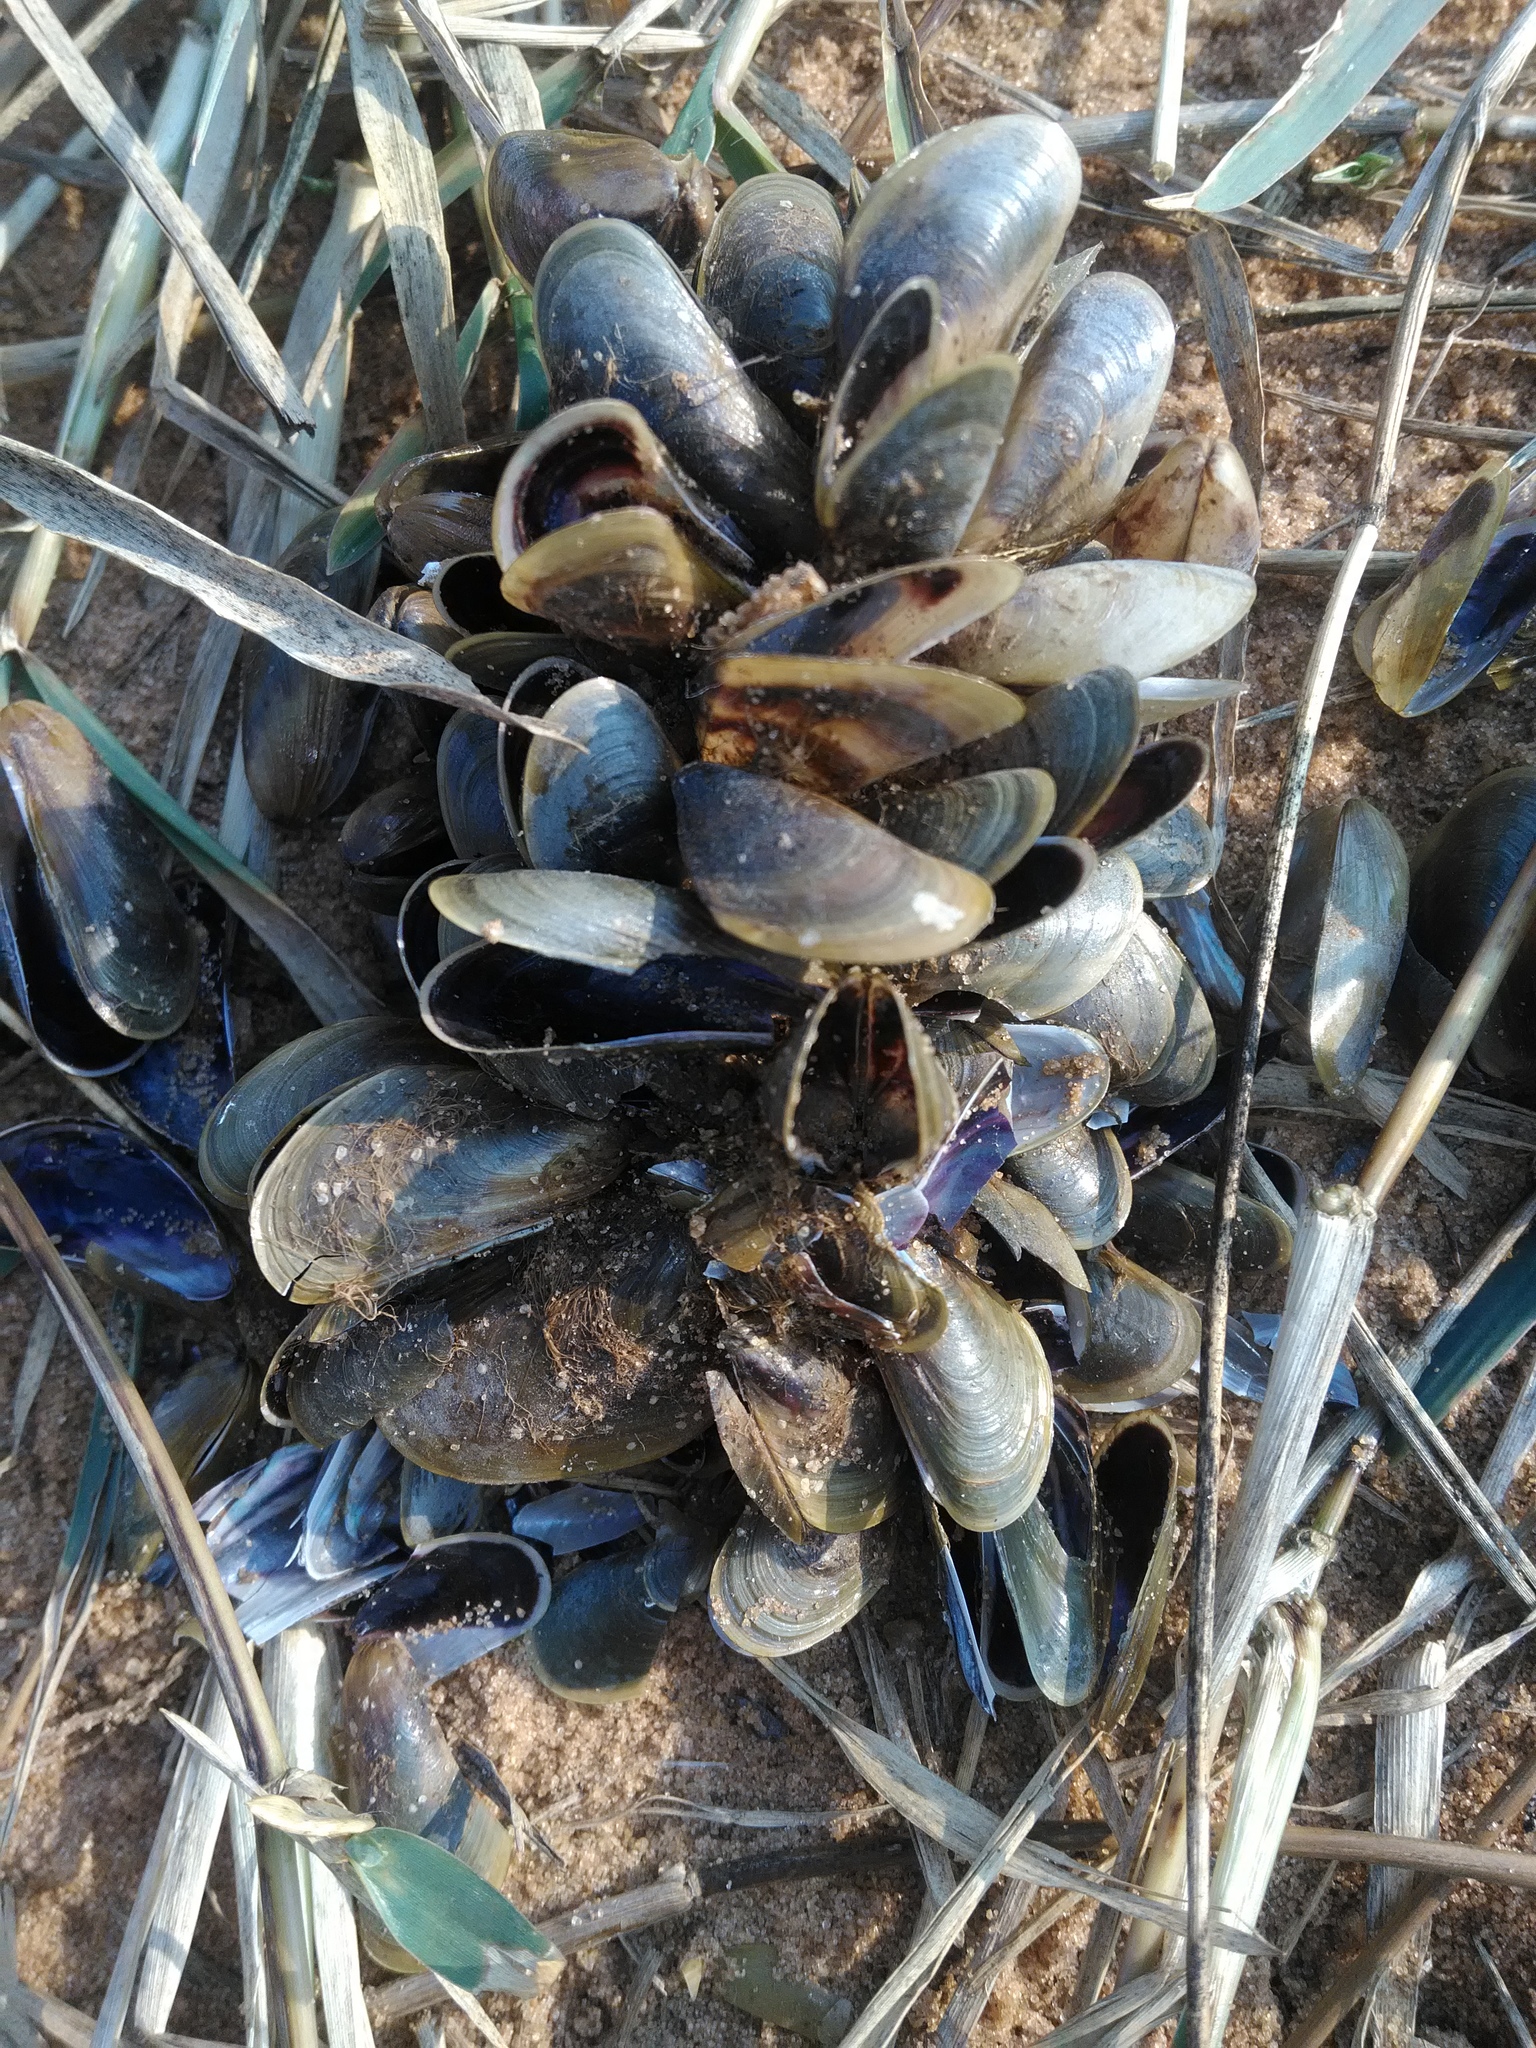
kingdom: Animalia
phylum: Mollusca
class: Bivalvia
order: Mytilida
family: Mytilidae
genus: Limnoperna
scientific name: Limnoperna fortunei
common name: Golden mussel
